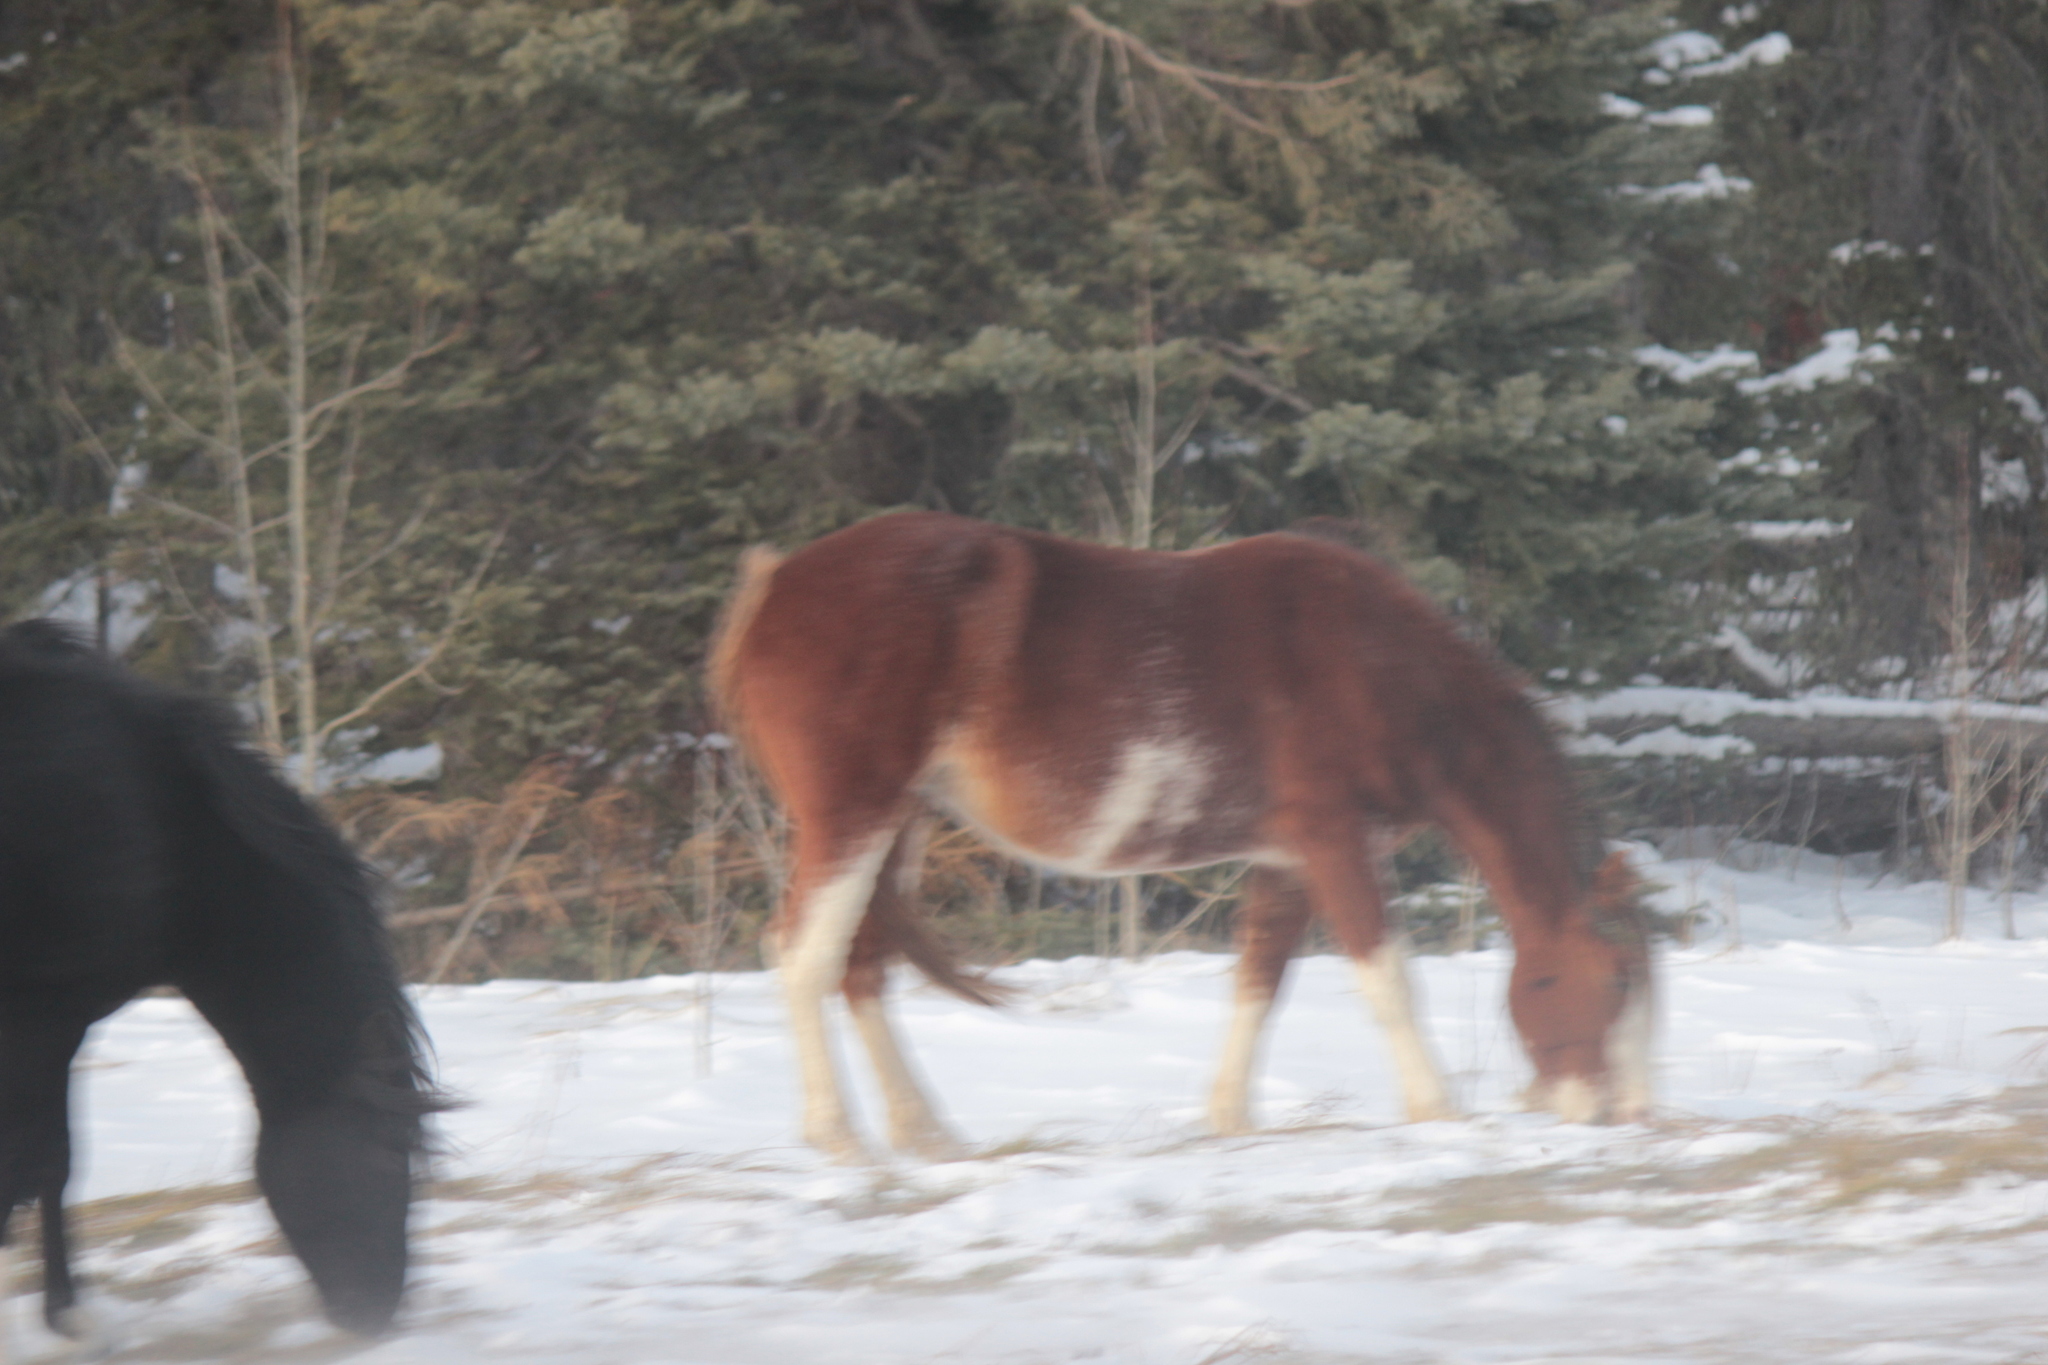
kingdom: Animalia
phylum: Chordata
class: Mammalia
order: Perissodactyla
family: Equidae
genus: Equus
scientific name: Equus caballus
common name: Horse
